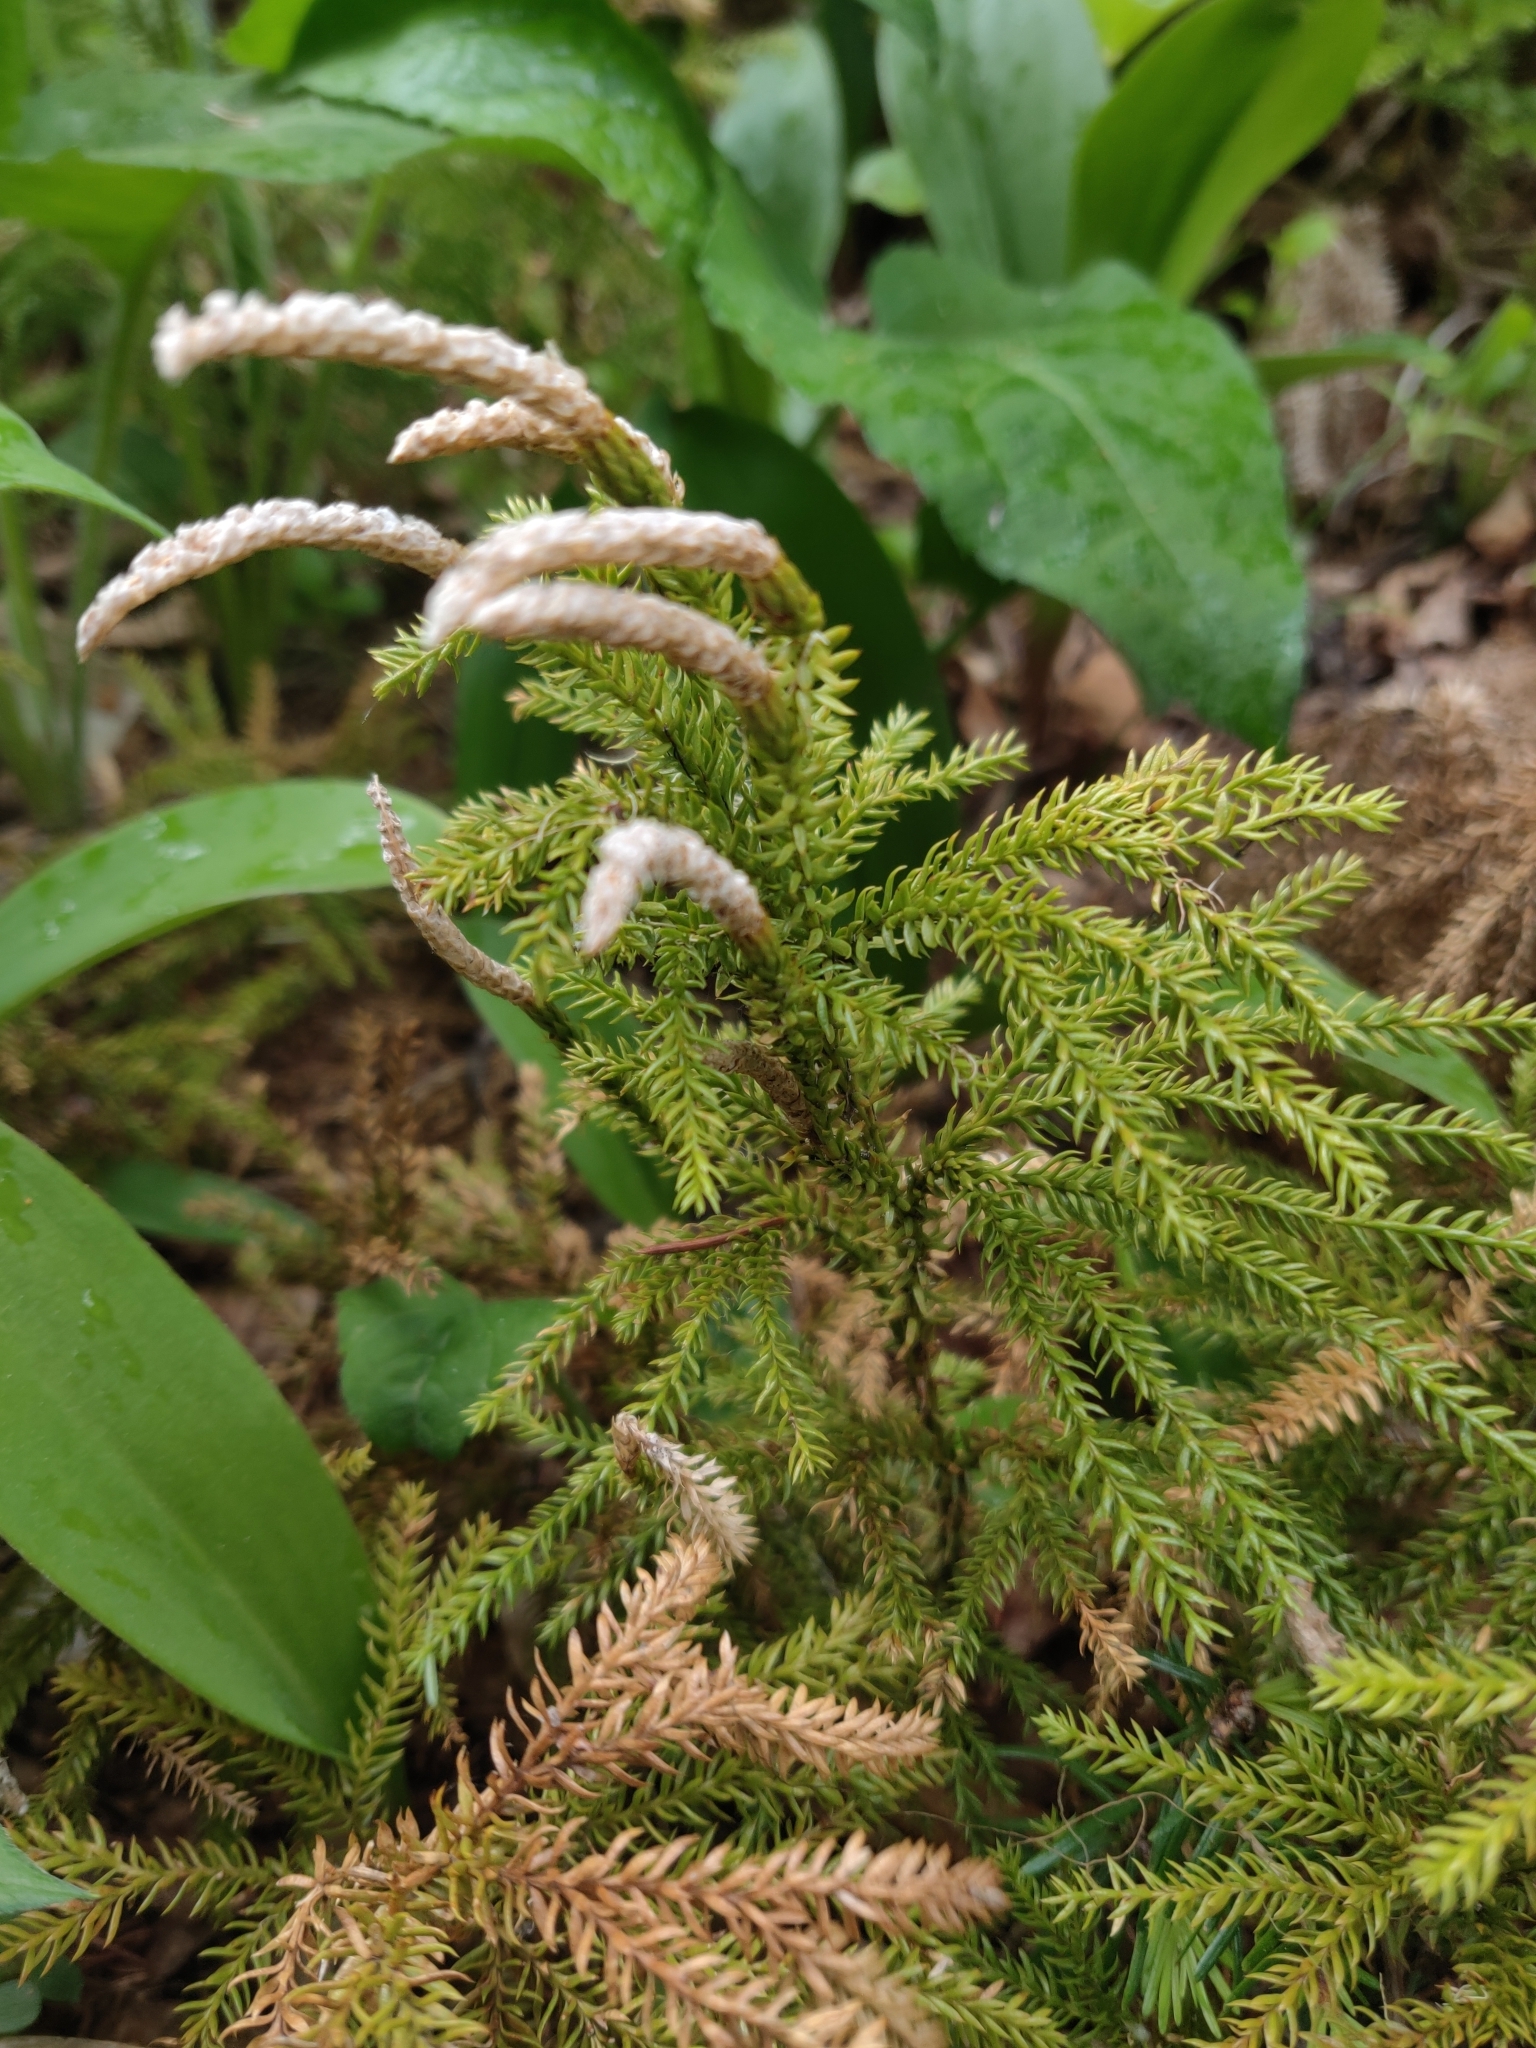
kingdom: Plantae
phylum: Tracheophyta
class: Lycopodiopsida
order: Lycopodiales
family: Lycopodiaceae
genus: Dendrolycopodium
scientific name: Dendrolycopodium hickeyi
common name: Hickey's clubmoss
